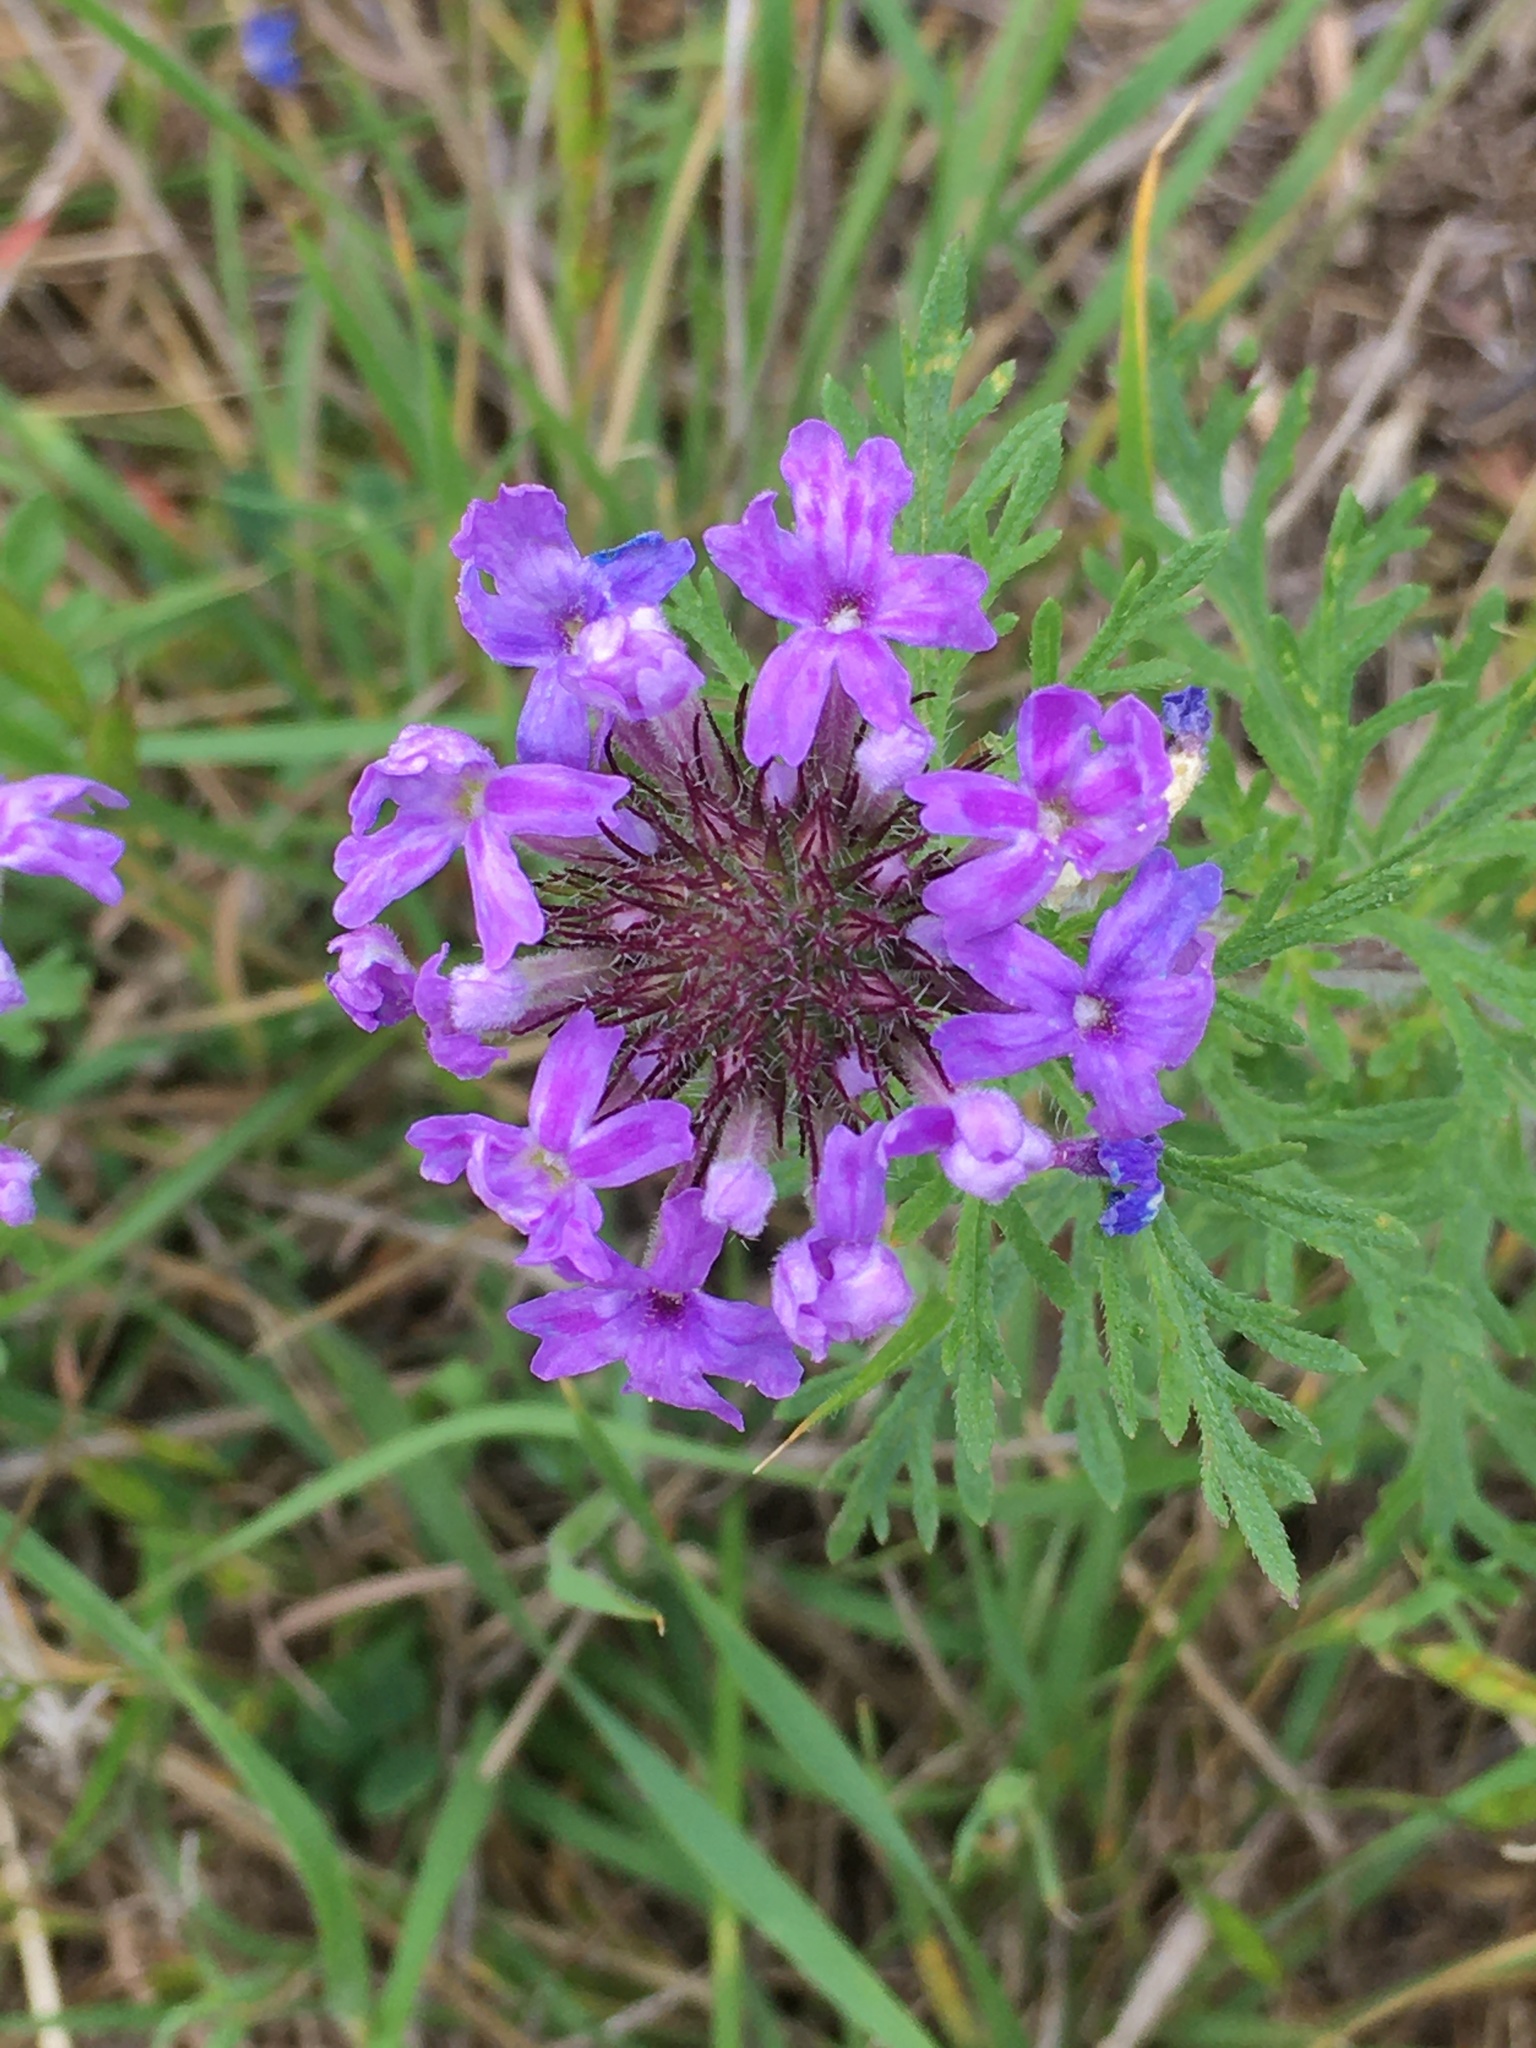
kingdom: Plantae
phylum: Tracheophyta
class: Magnoliopsida
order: Lamiales
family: Verbenaceae
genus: Verbena
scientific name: Verbena bipinnatifida
